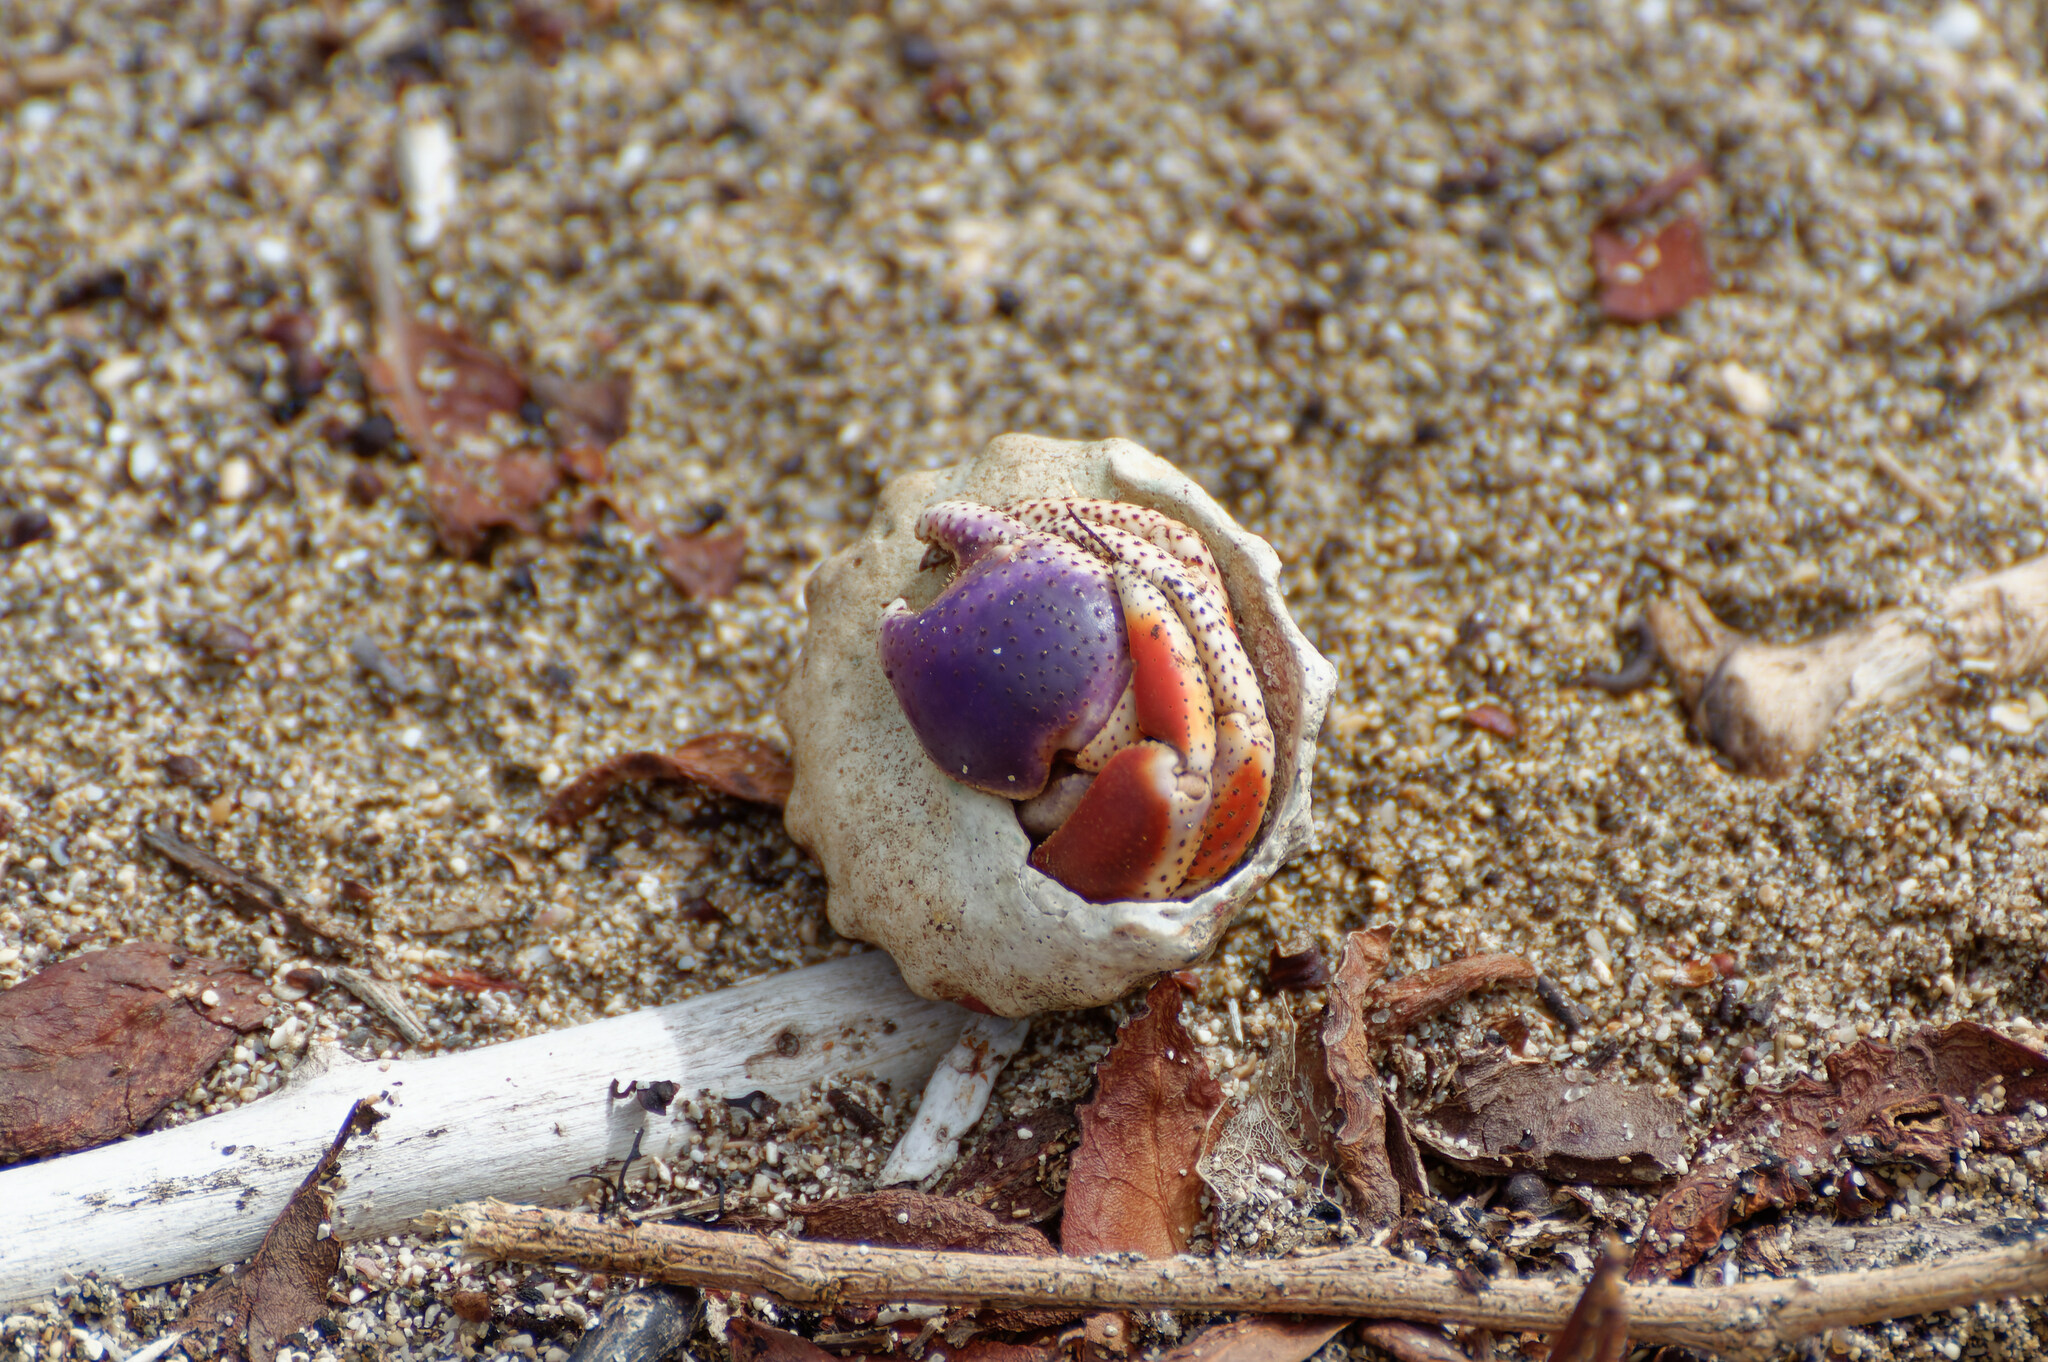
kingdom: Animalia
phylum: Arthropoda
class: Malacostraca
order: Decapoda
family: Coenobitidae
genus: Coenobita
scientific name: Coenobita clypeatus
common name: Caribbean hermit crab
